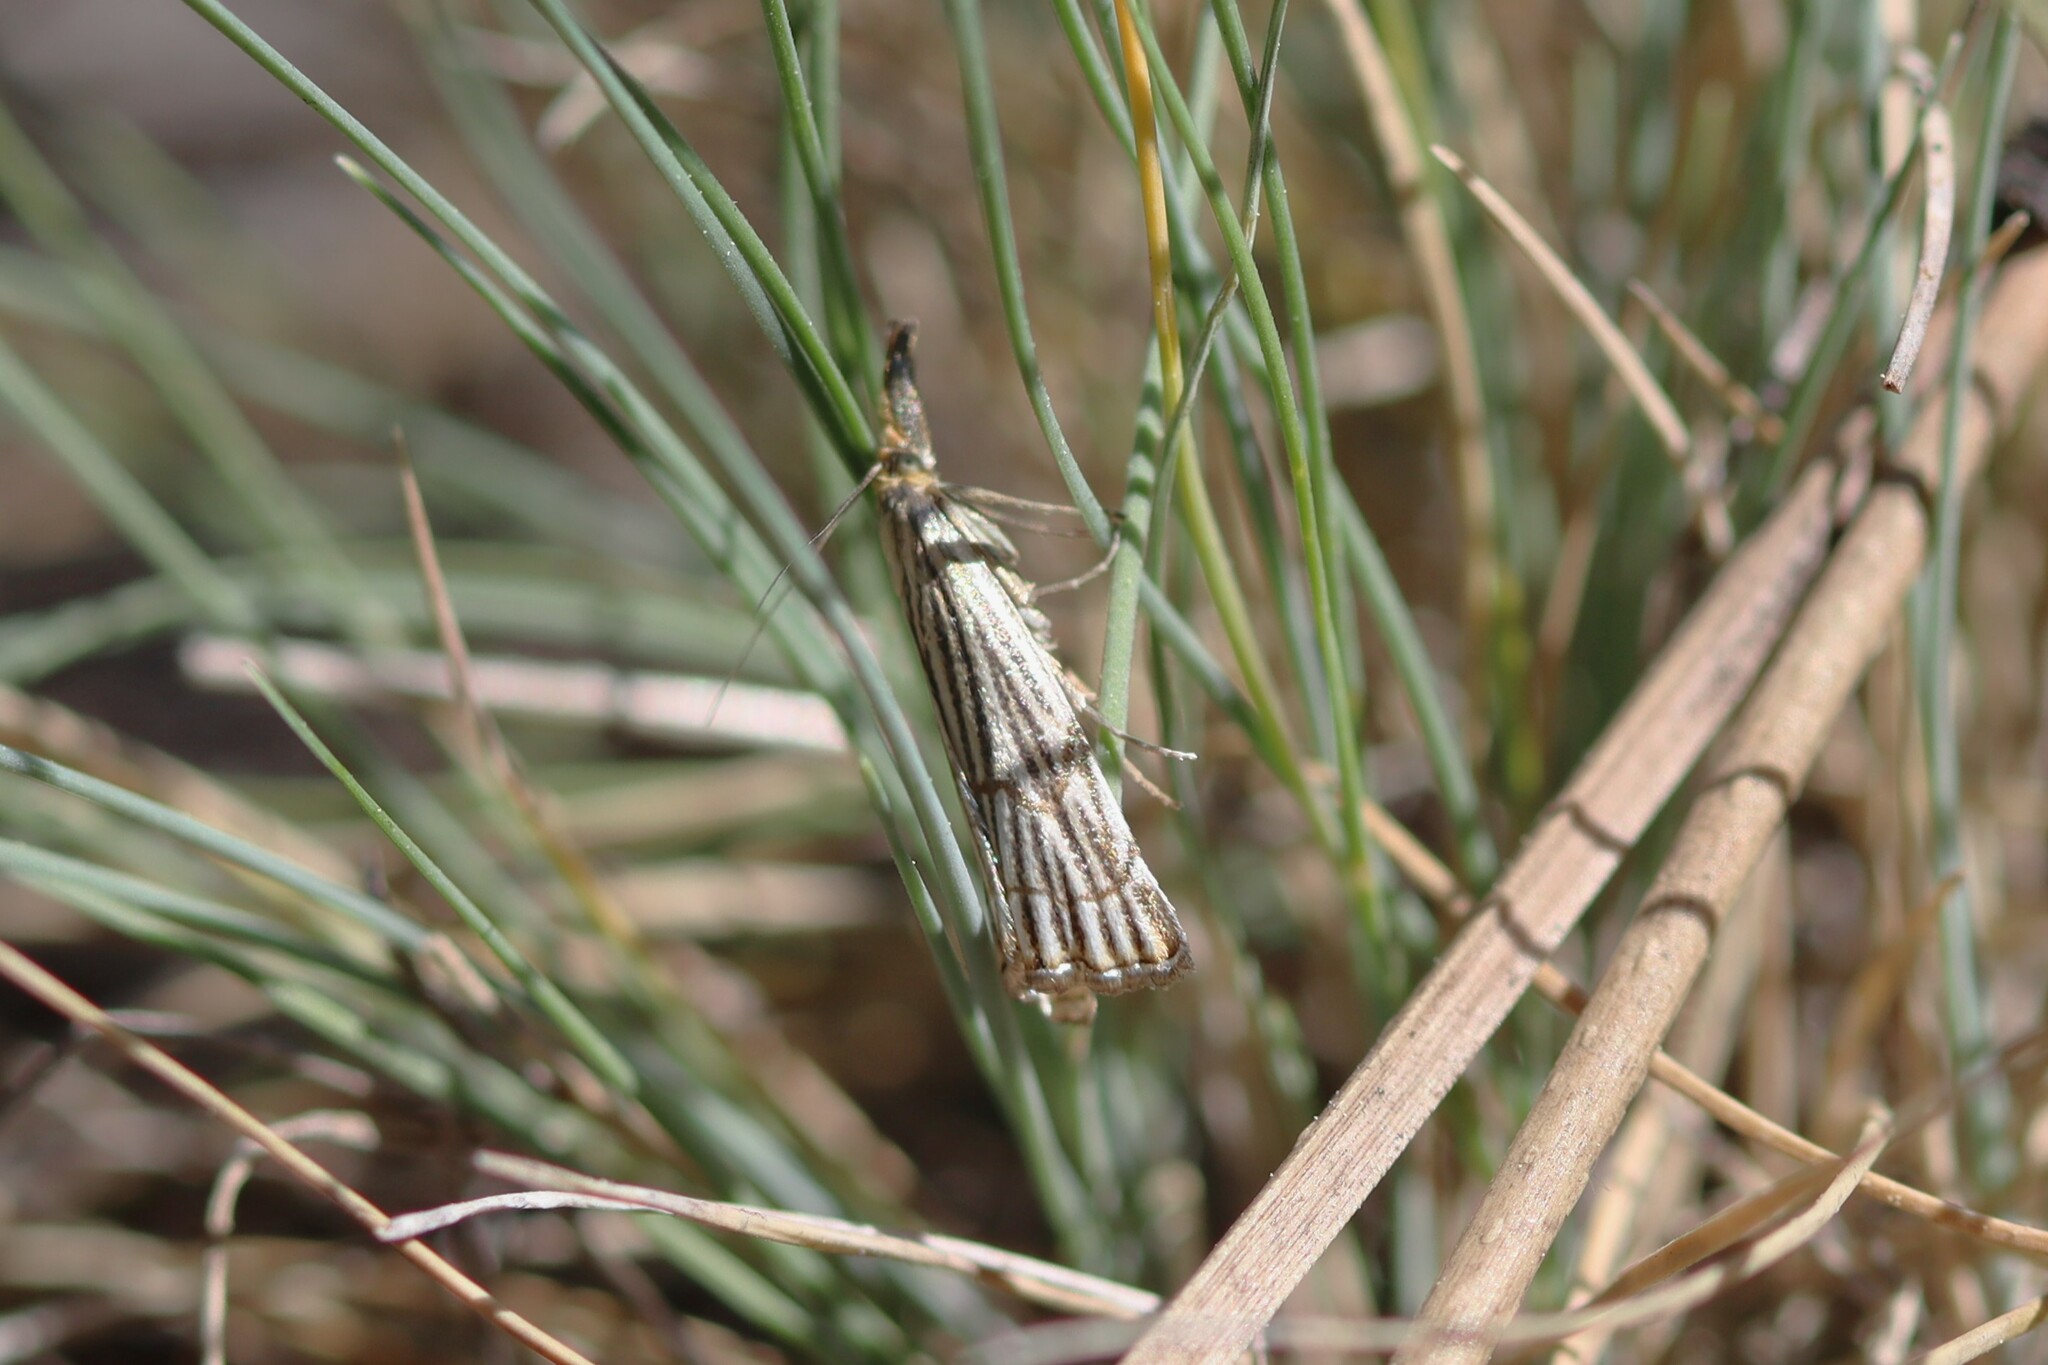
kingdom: Animalia
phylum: Arthropoda
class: Insecta
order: Lepidoptera
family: Crambidae
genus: Chrysocrambus
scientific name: Chrysocrambus Chrysocramboides craterellus
